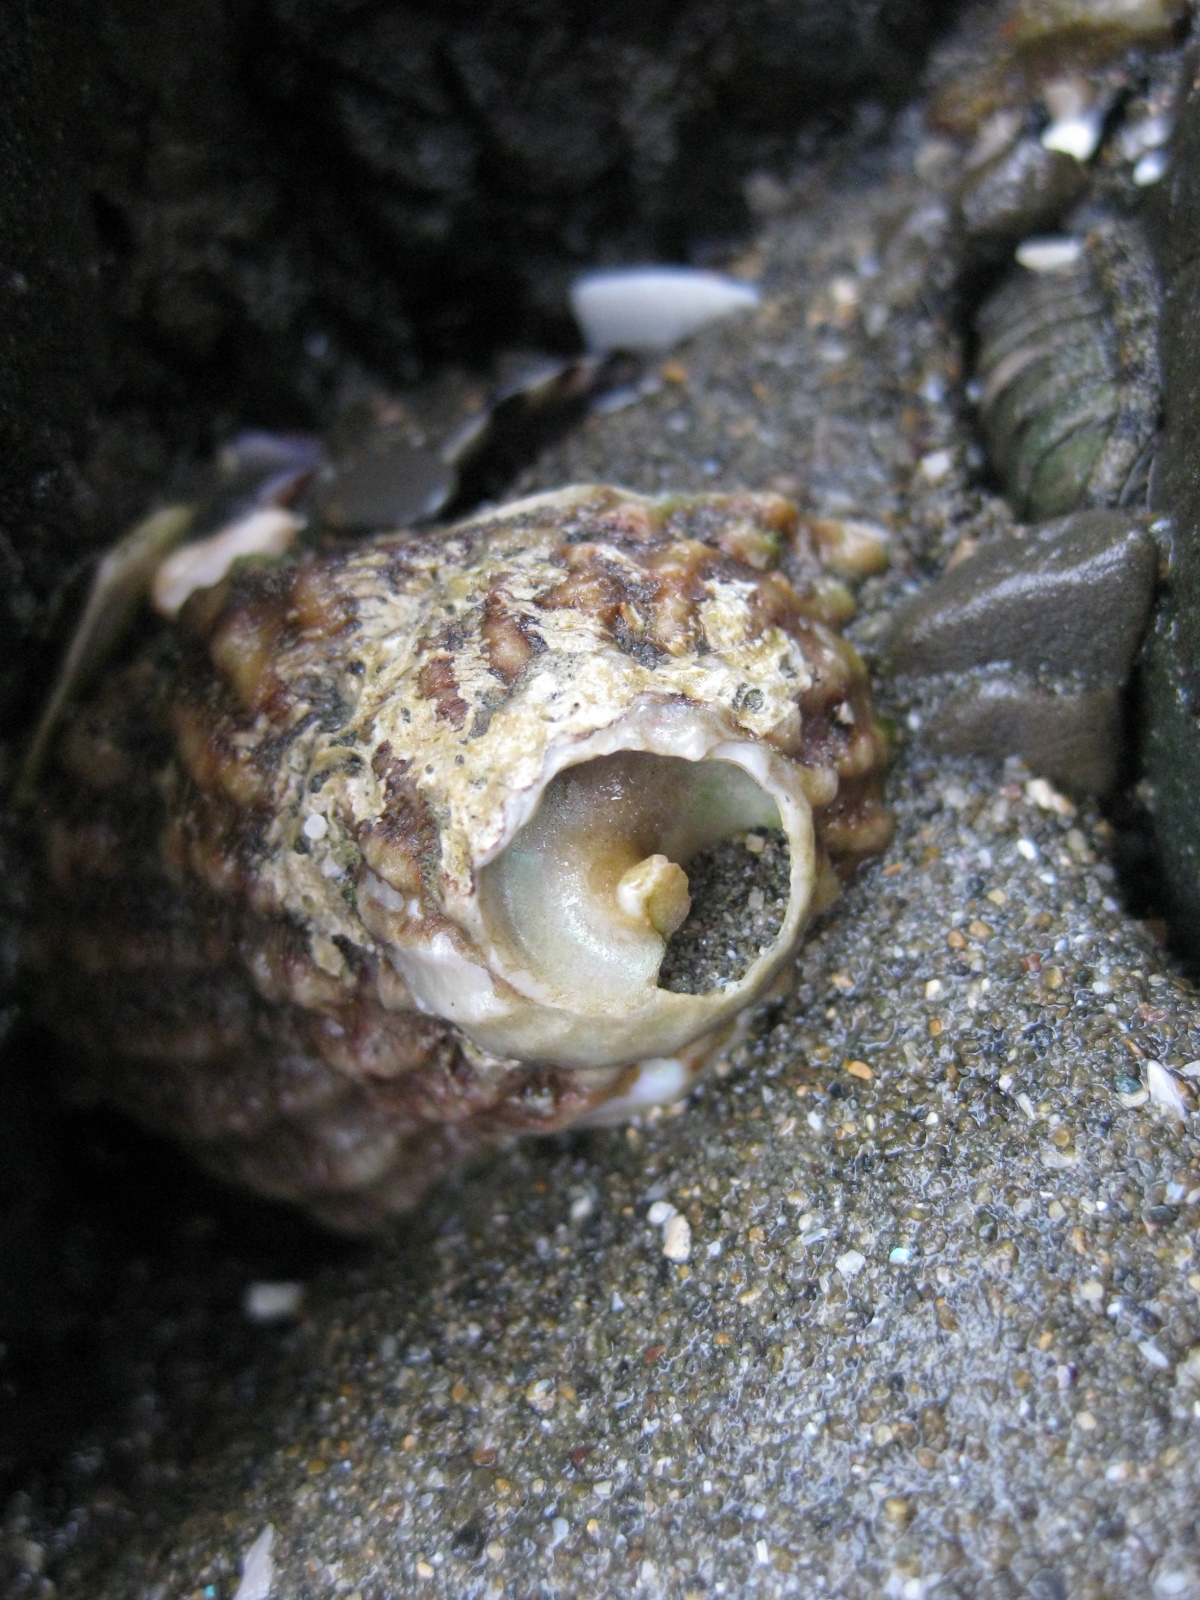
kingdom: Animalia
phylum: Mollusca
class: Gastropoda
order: Trochida
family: Turbinidae
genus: Cookia
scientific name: Cookia sulcata
